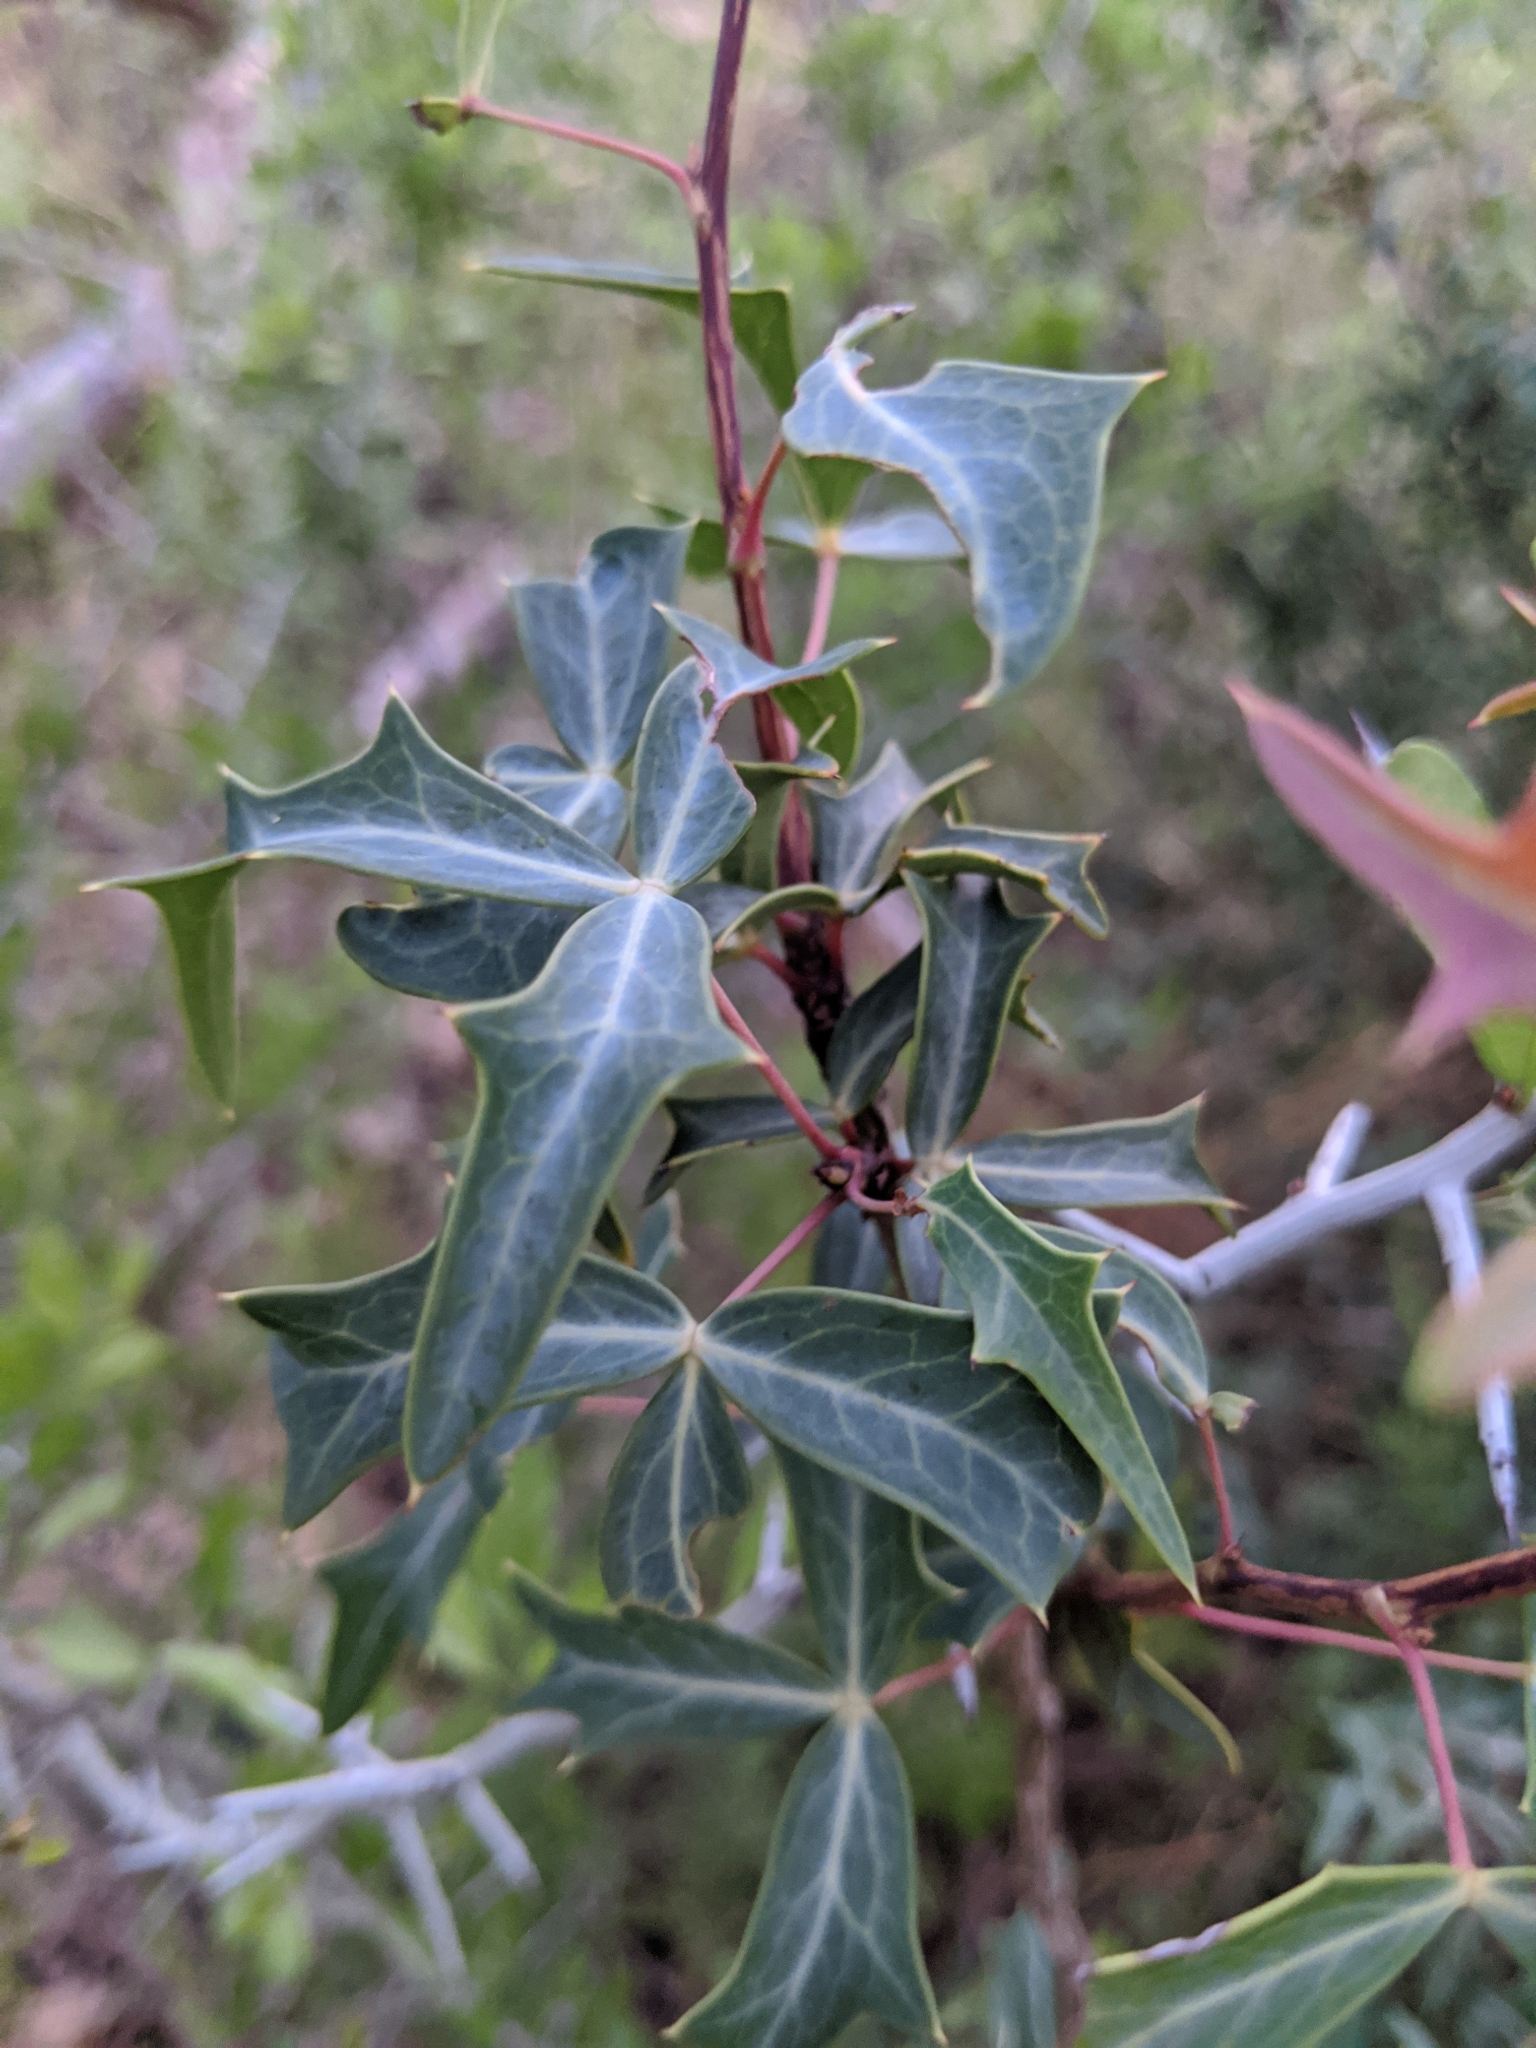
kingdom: Plantae
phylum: Tracheophyta
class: Magnoliopsida
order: Ranunculales
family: Berberidaceae
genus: Alloberberis
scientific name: Alloberberis trifoliolata
